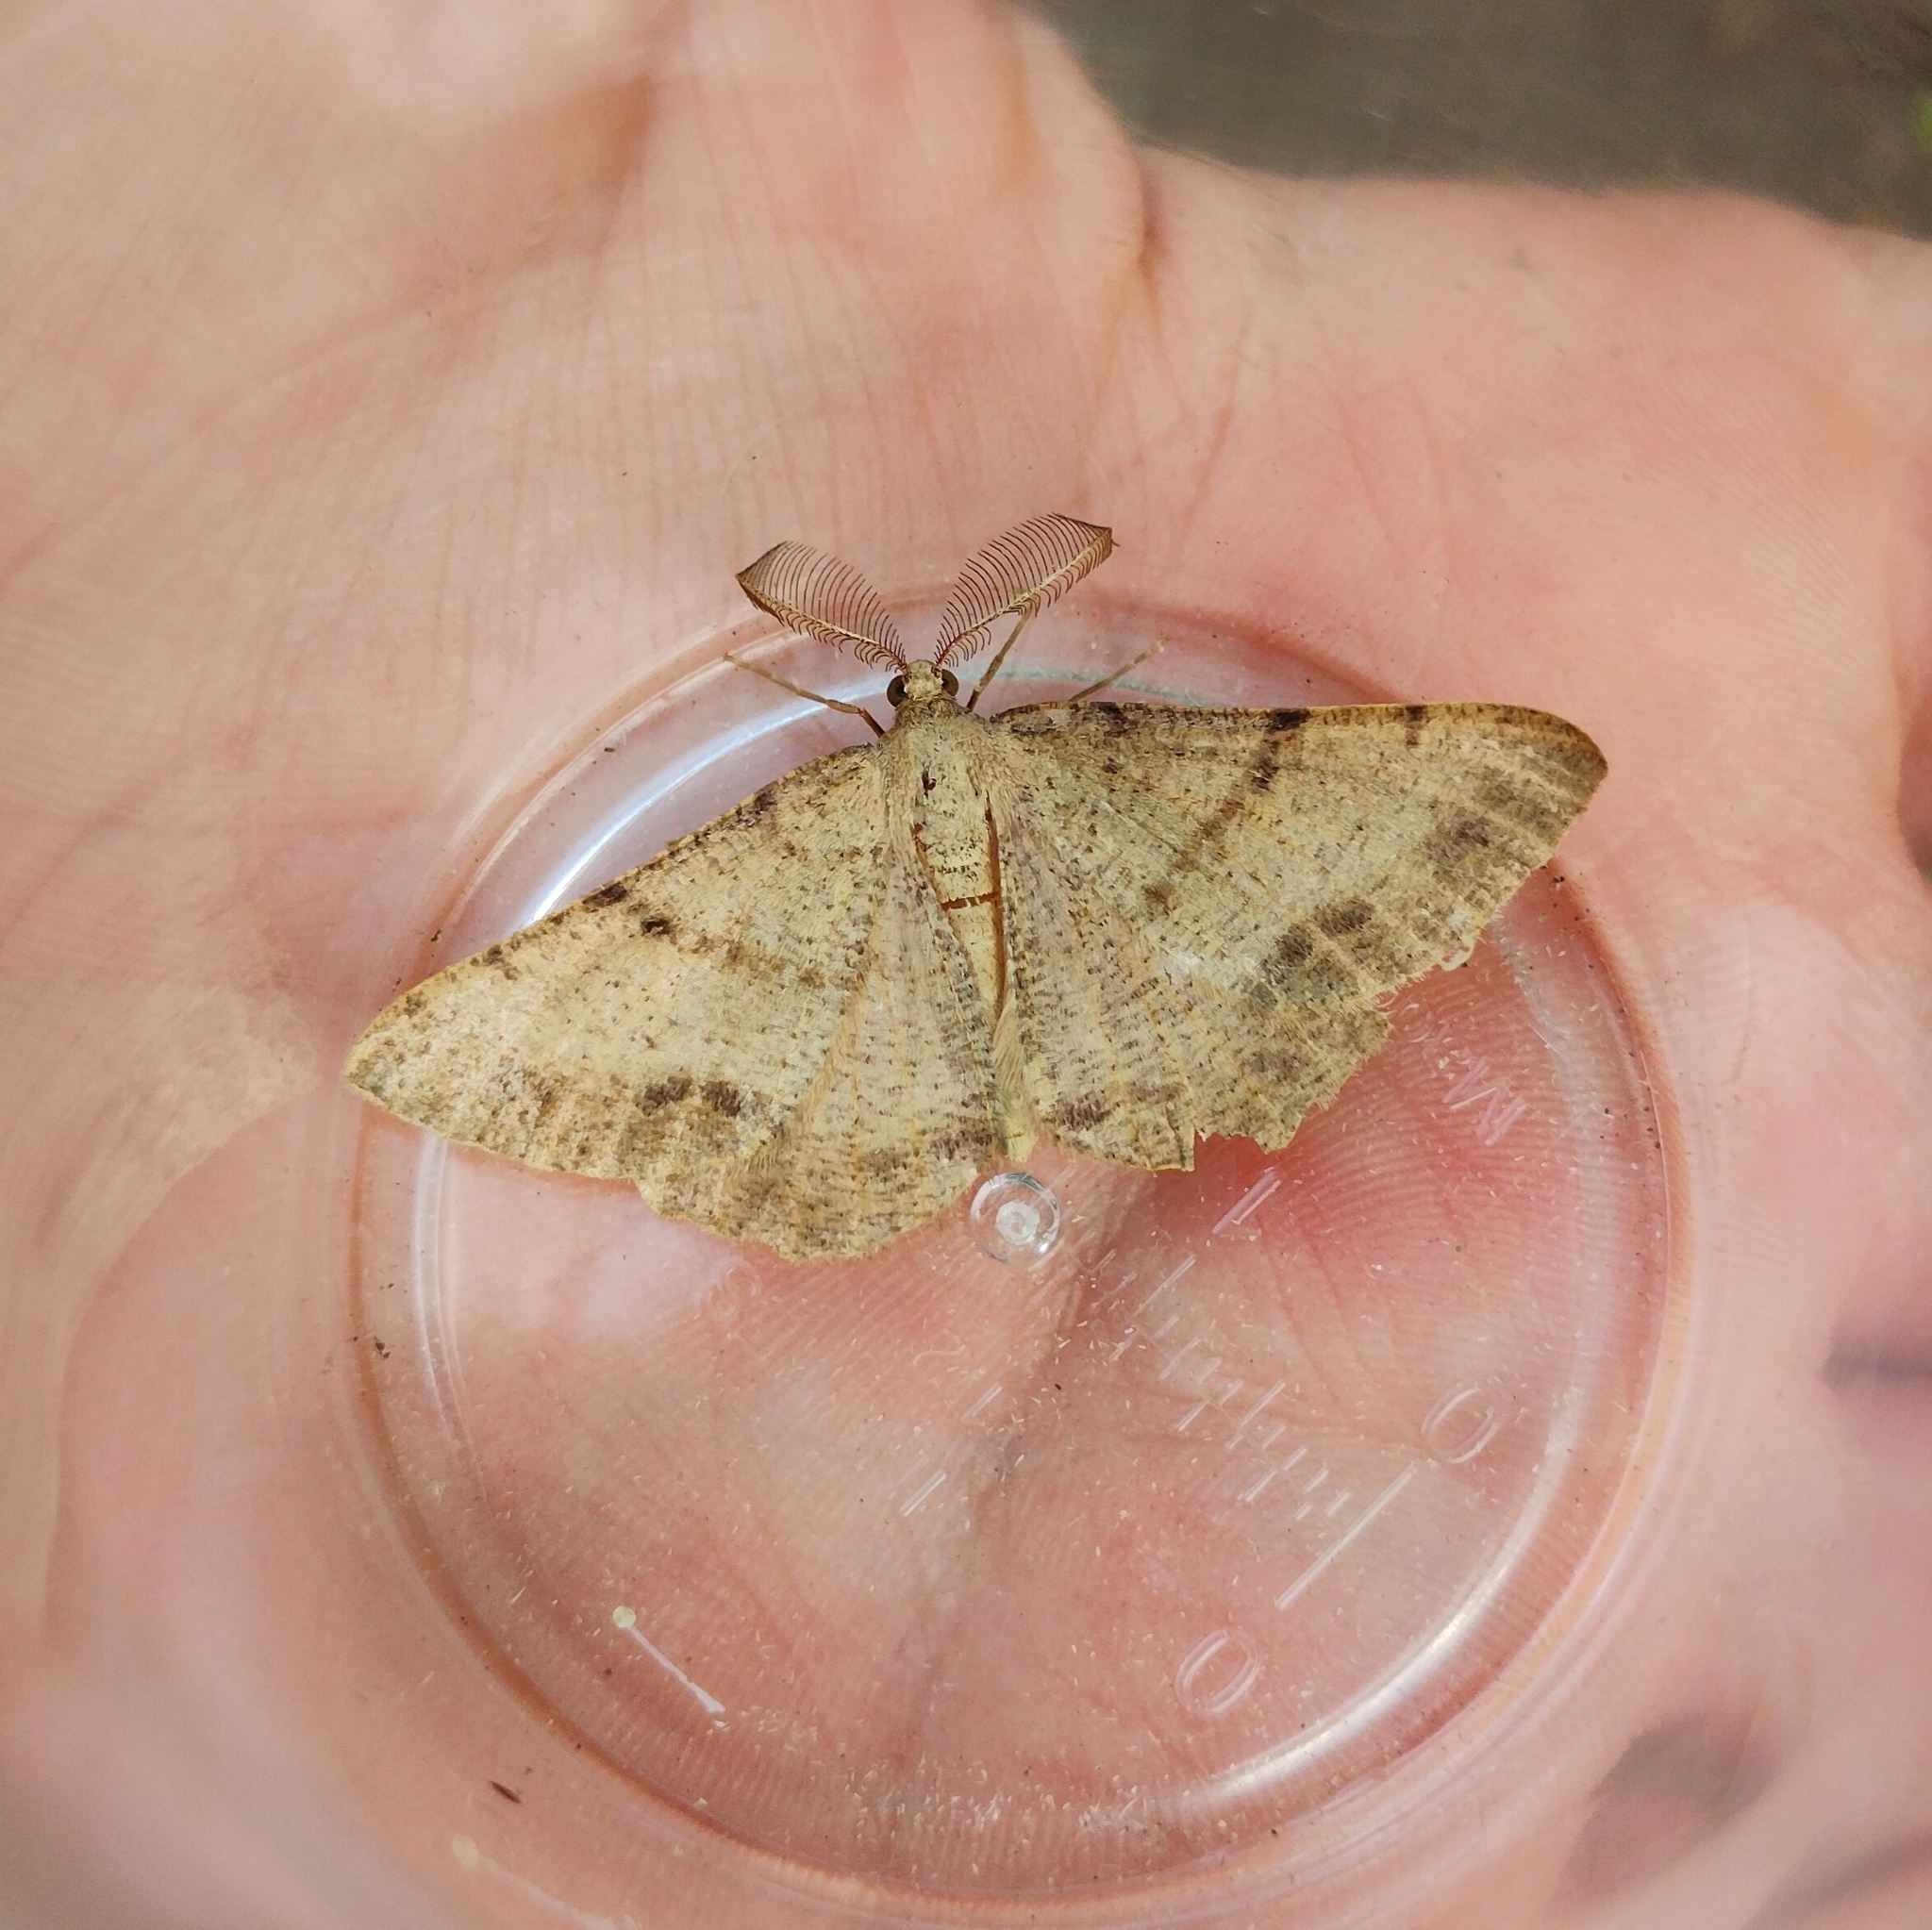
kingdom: Animalia
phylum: Arthropoda
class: Insecta
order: Lepidoptera
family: Geometridae
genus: Selidosema
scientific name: Selidosema plumaria
